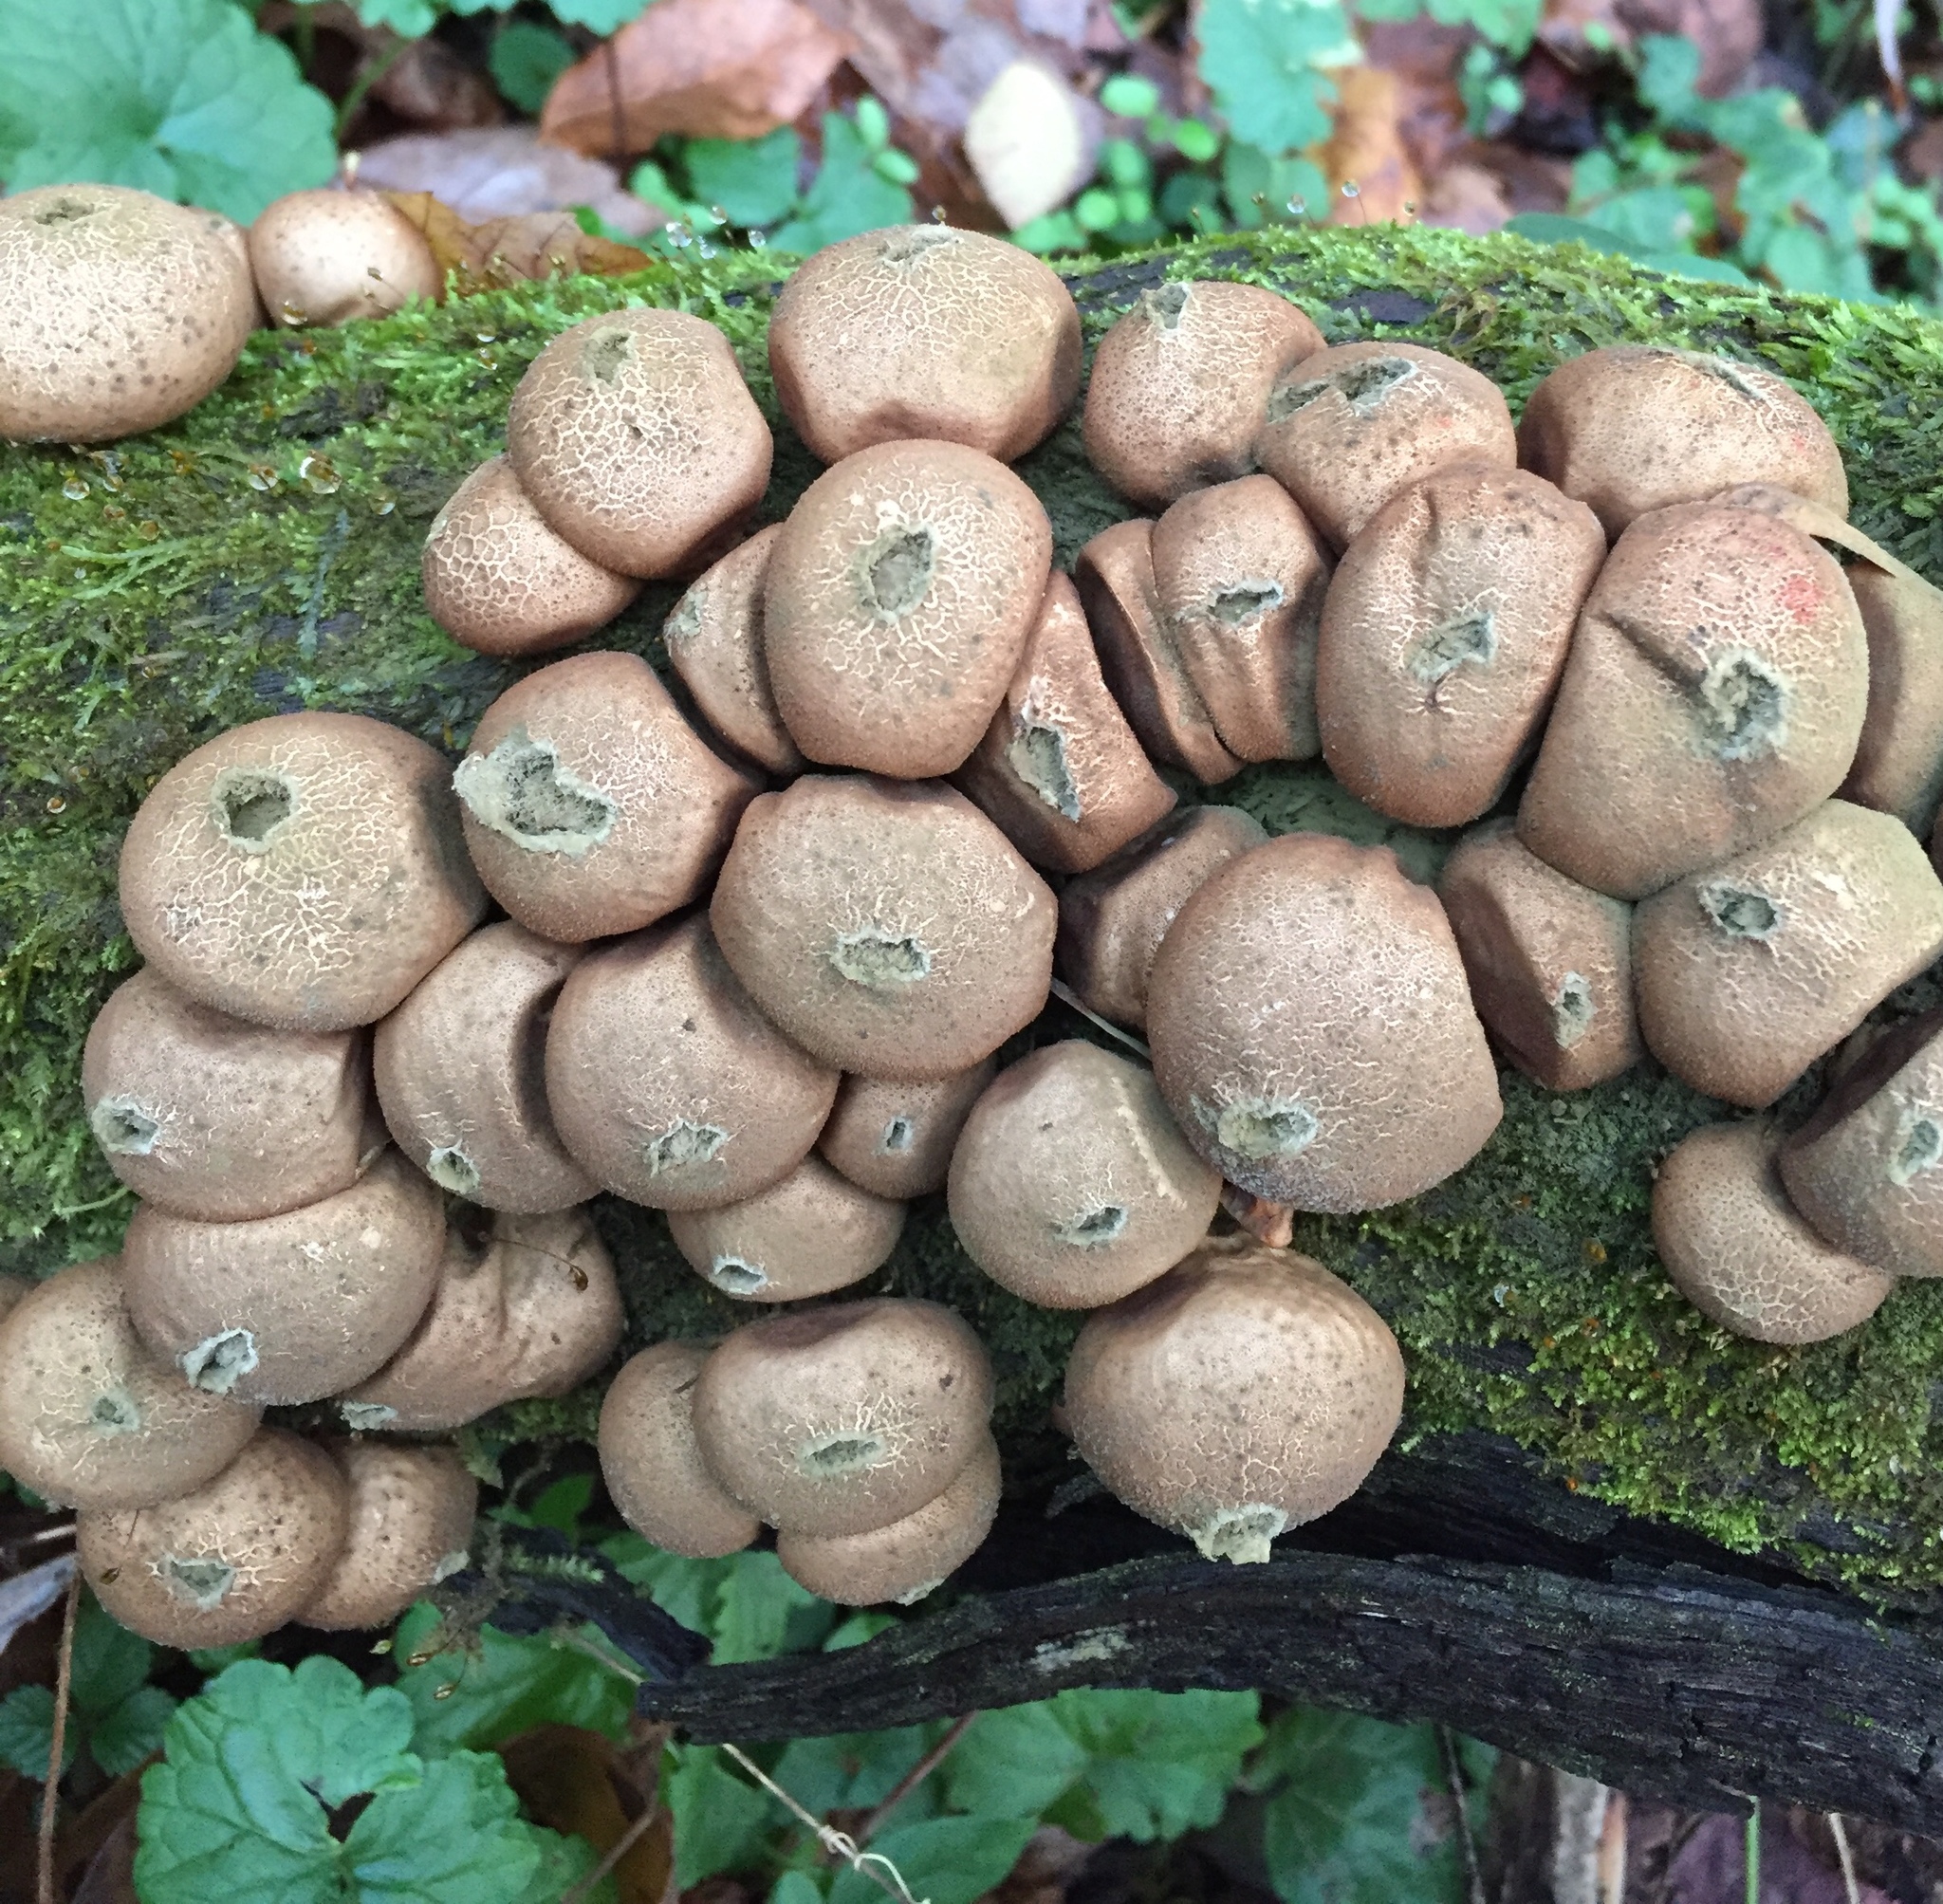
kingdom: Fungi
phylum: Basidiomycota
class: Agaricomycetes
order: Agaricales
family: Lycoperdaceae
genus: Apioperdon
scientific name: Apioperdon pyriforme
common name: Pear-shaped puffball
